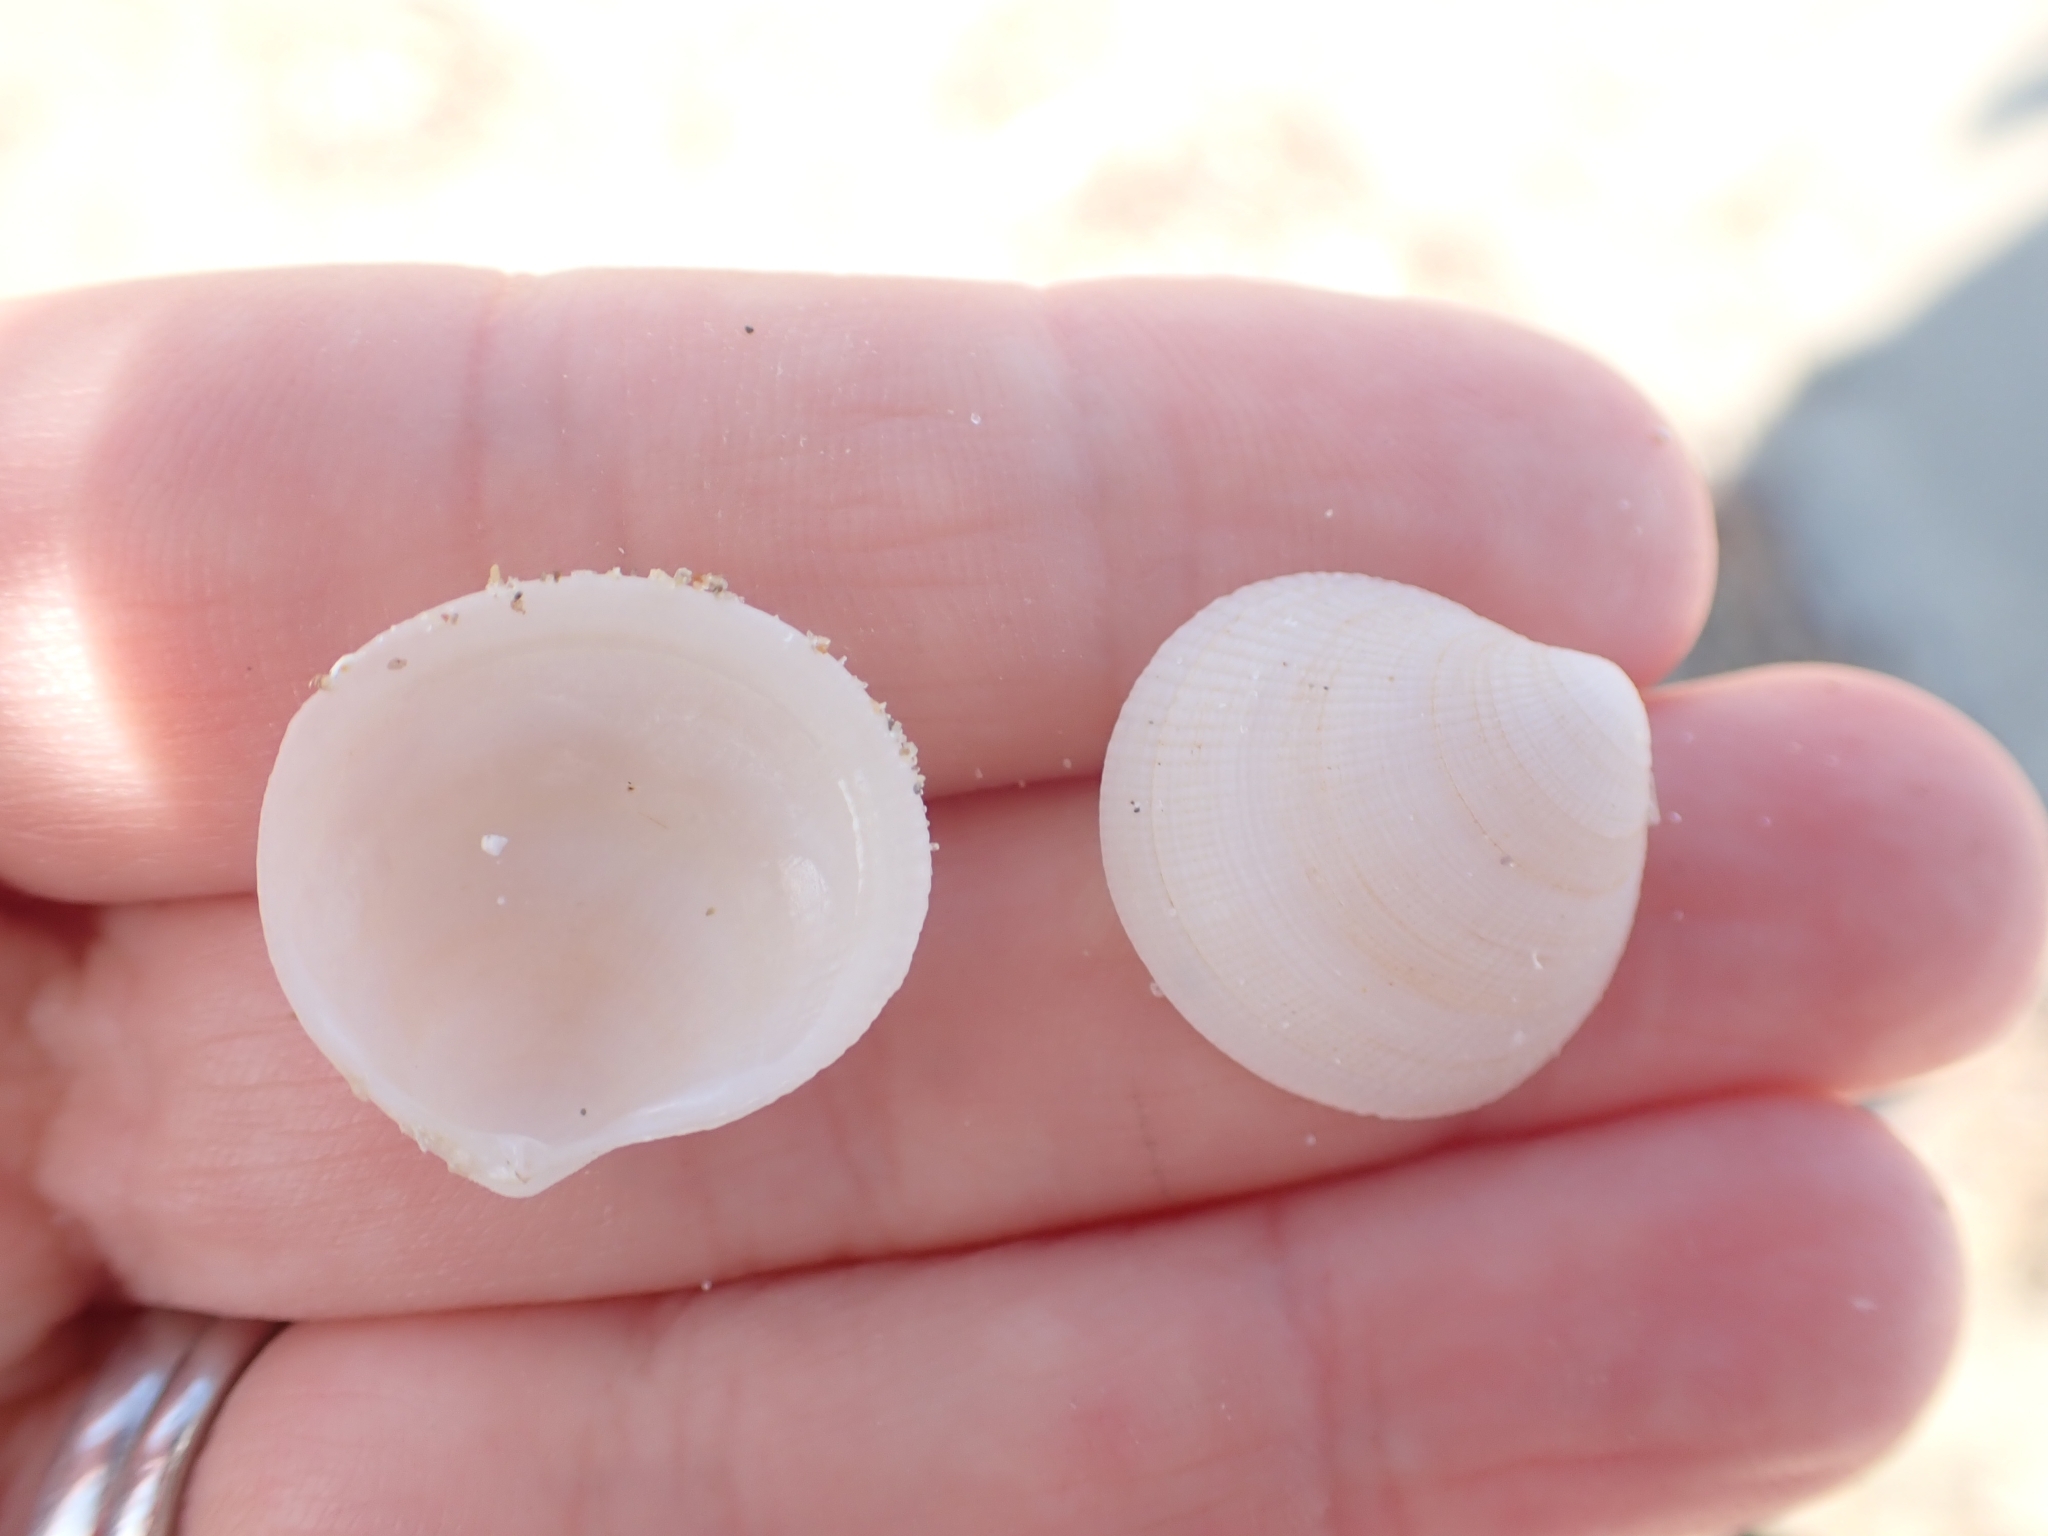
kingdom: Animalia
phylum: Mollusca
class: Bivalvia
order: Lucinida
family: Lucinidae
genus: Ctena
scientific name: Ctena decussata
